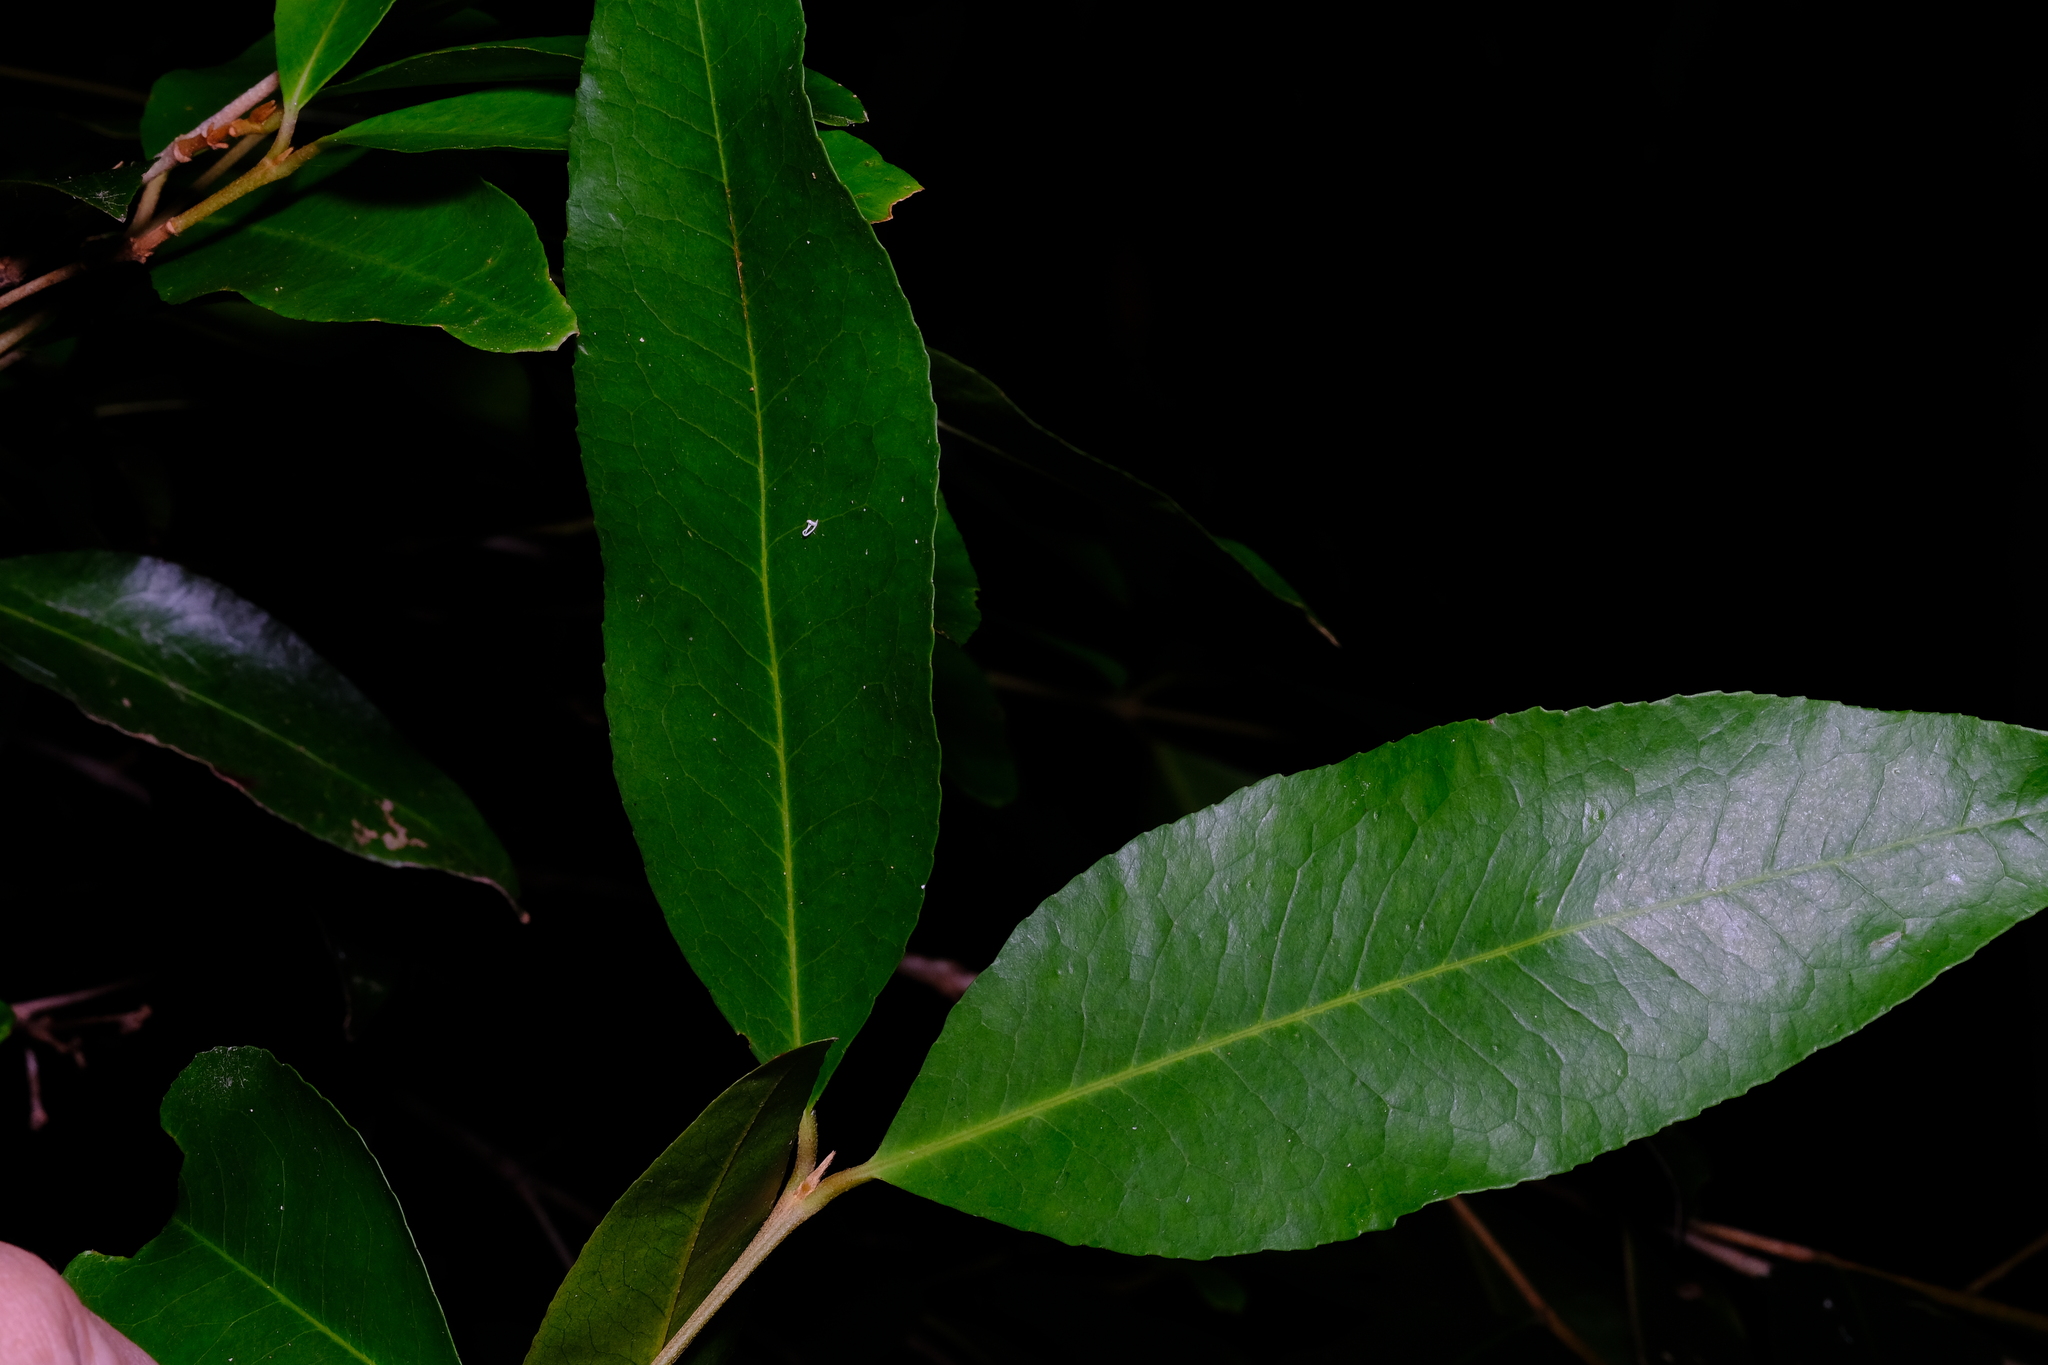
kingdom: Plantae
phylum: Tracheophyta
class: Magnoliopsida
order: Malpighiales
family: Picrodendraceae
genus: Austrobuxus
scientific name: Austrobuxus swainii
